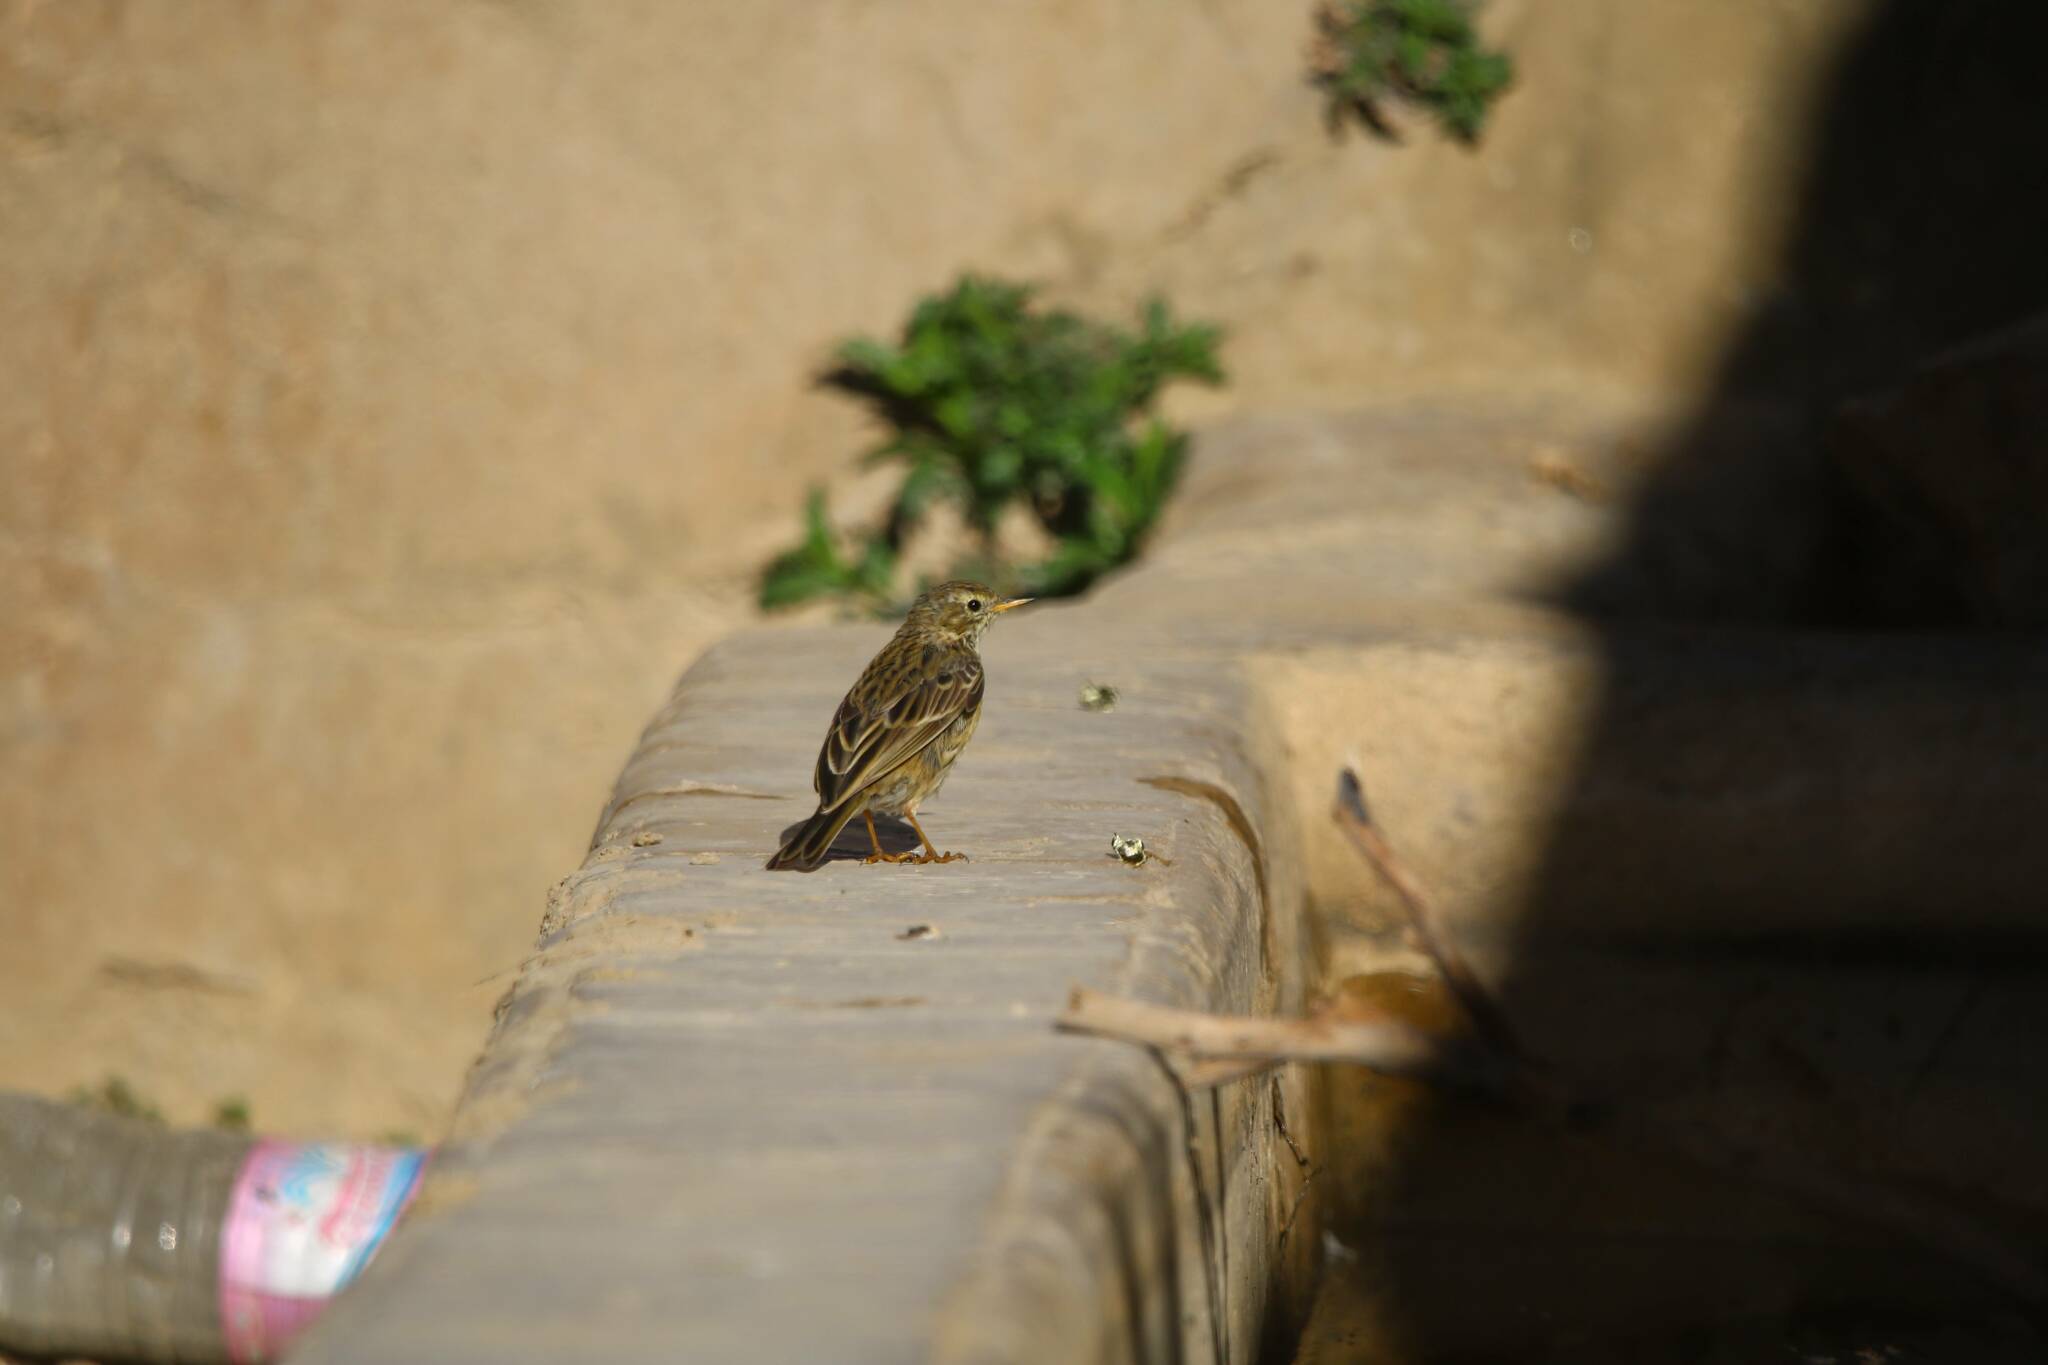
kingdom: Animalia
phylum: Chordata
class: Aves
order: Passeriformes
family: Motacillidae
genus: Anthus
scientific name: Anthus pratensis
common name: Meadow pipit
